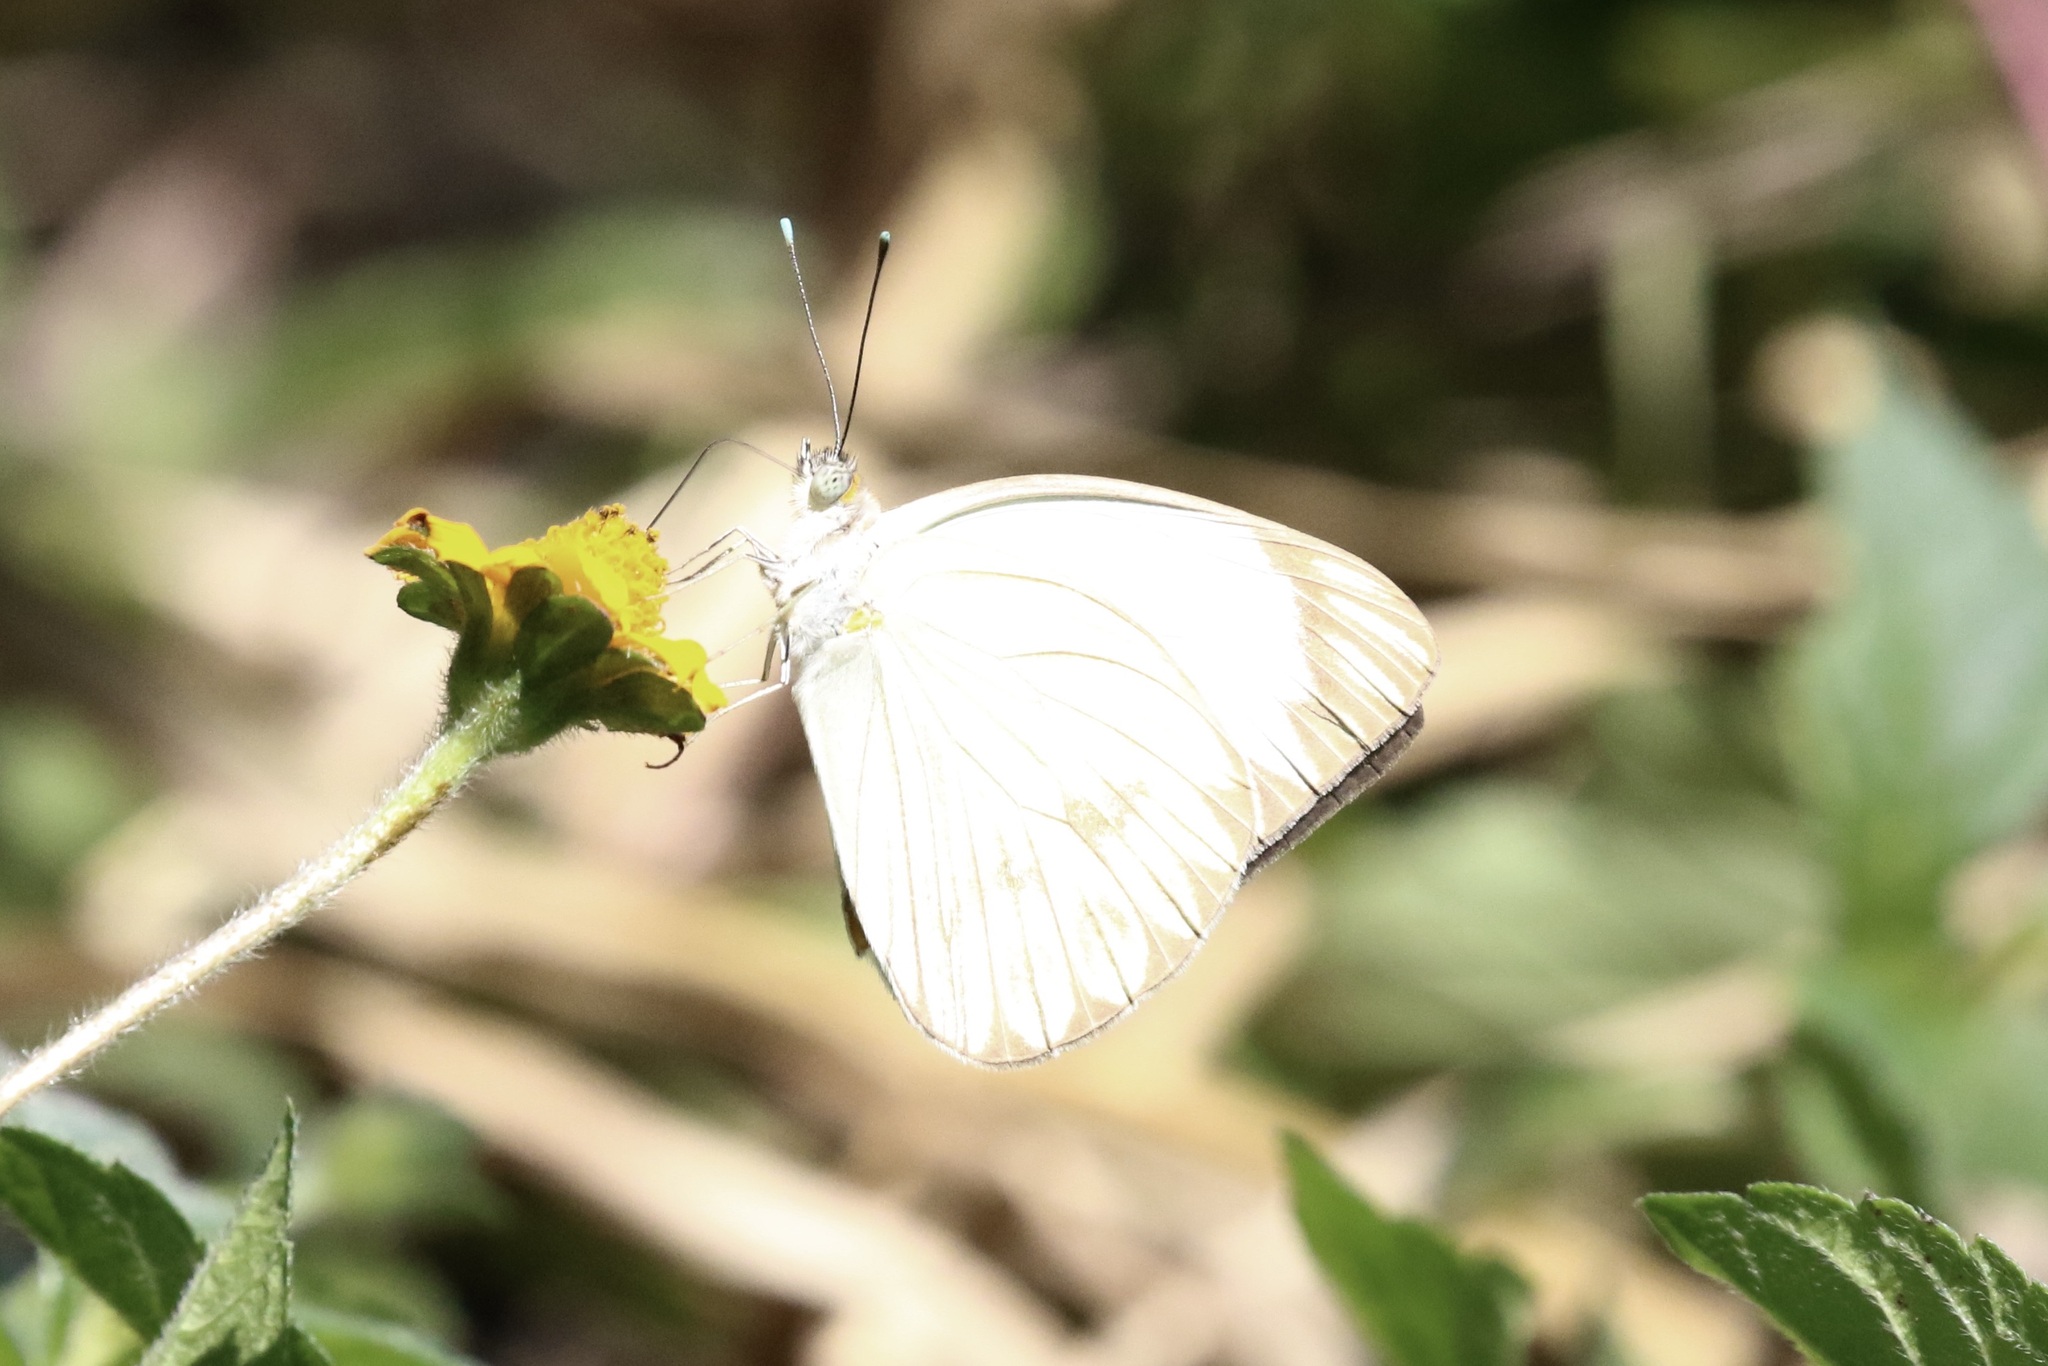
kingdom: Animalia
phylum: Arthropoda
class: Insecta
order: Lepidoptera
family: Pieridae
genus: Ascia
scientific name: Ascia monuste
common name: Great southern white
